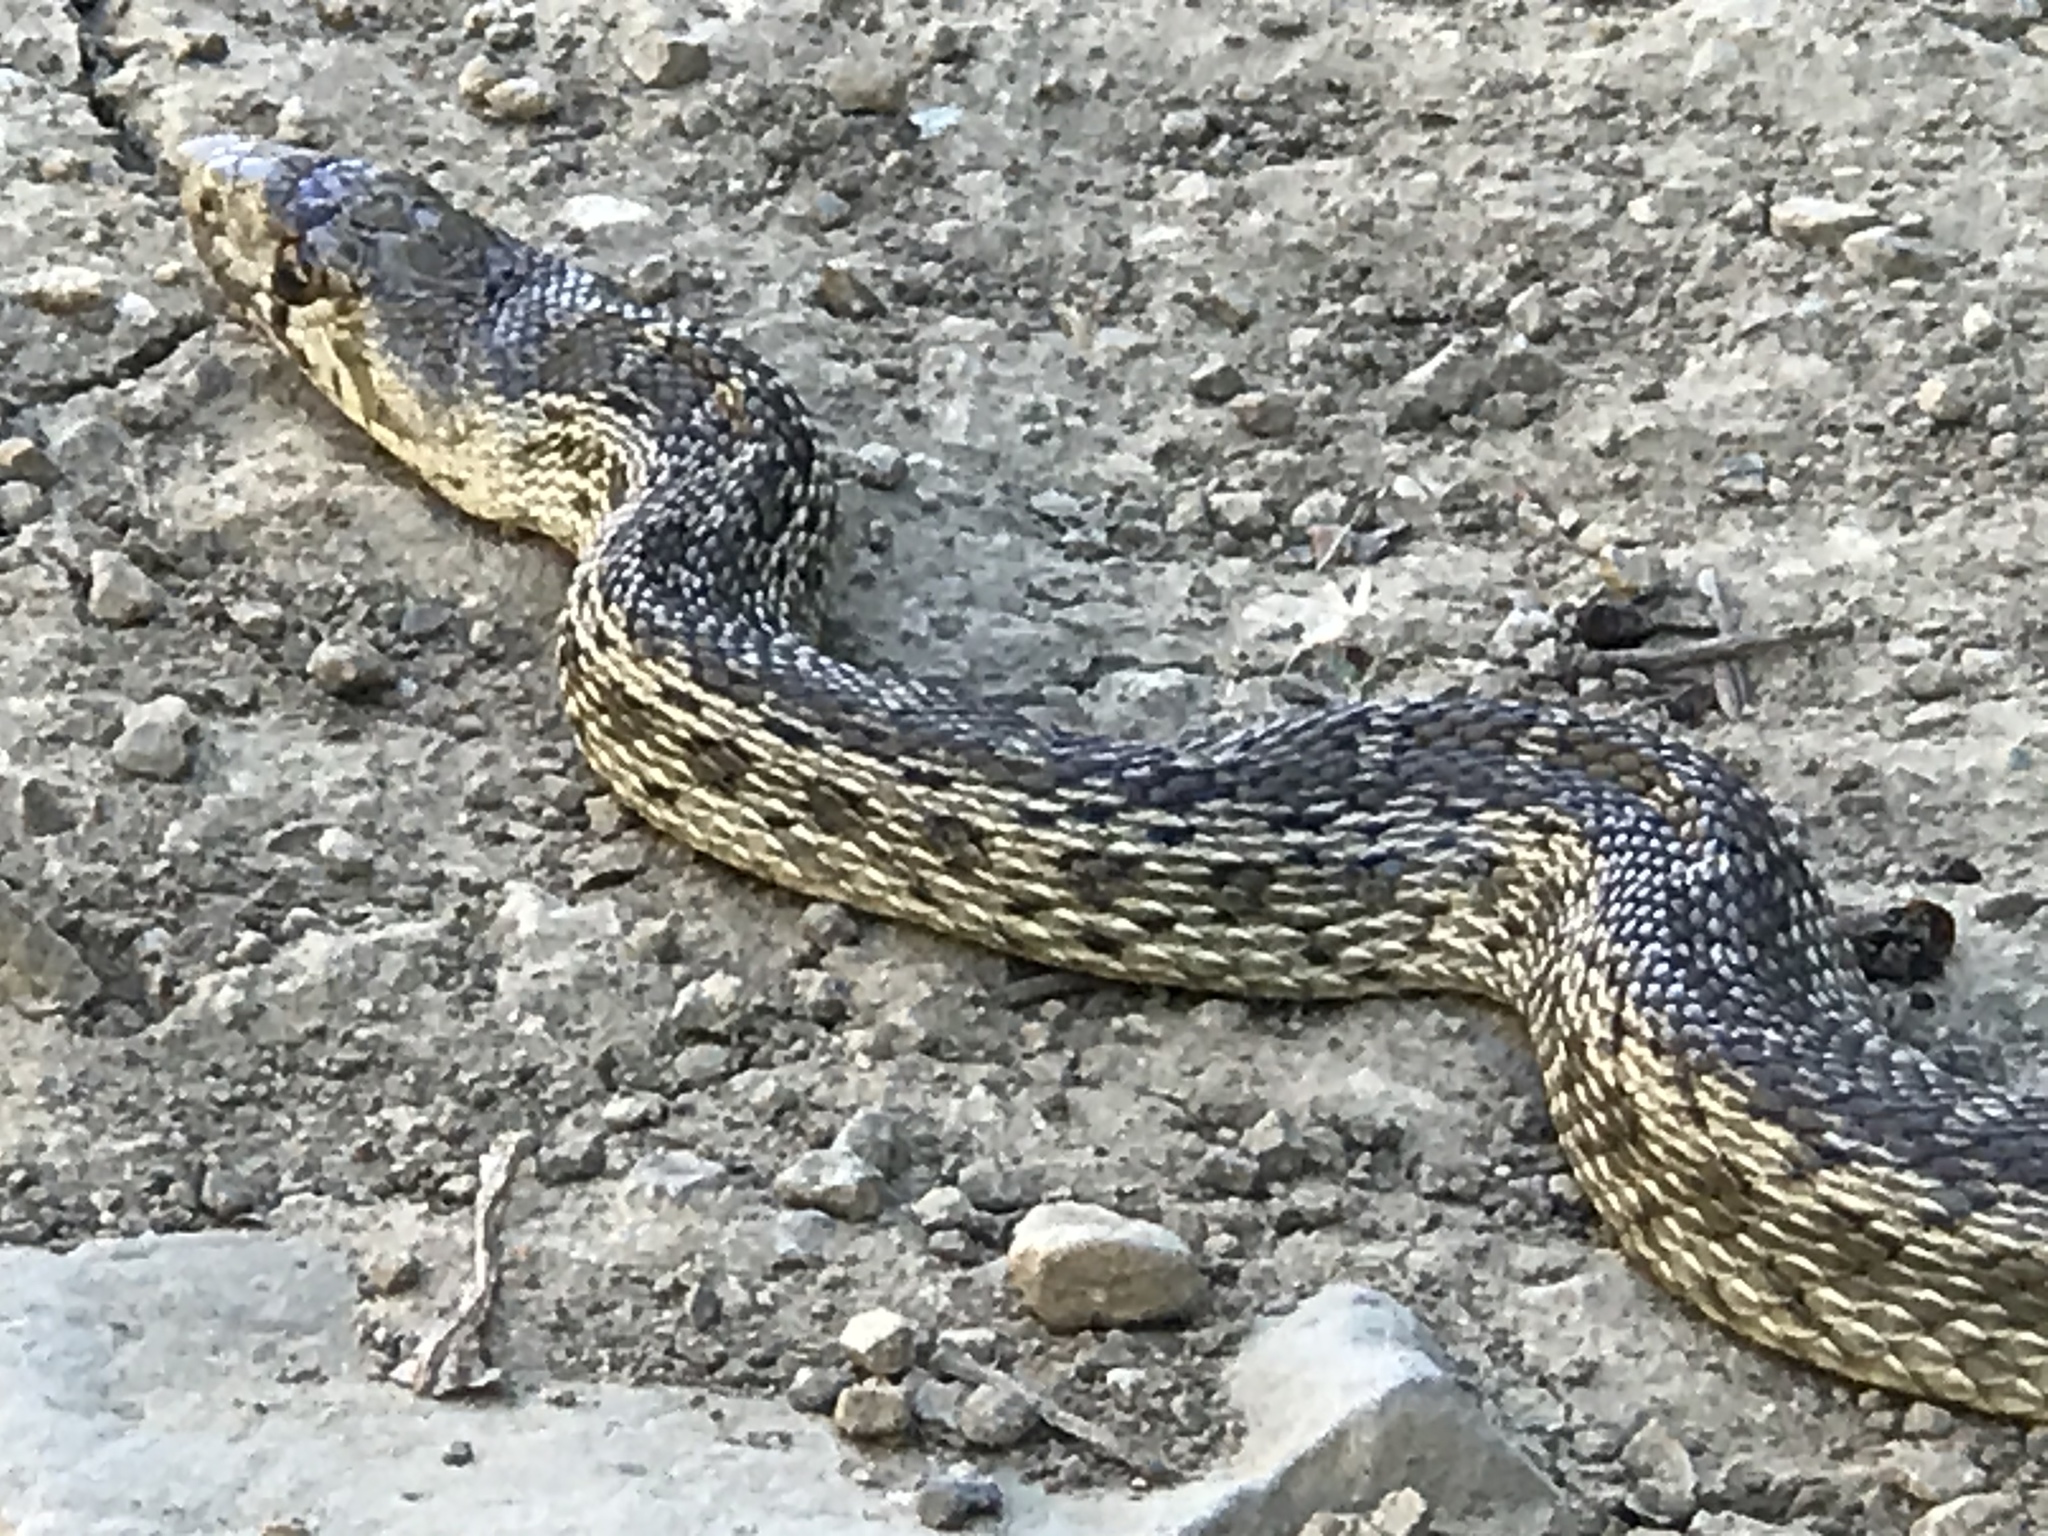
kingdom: Animalia
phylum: Chordata
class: Squamata
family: Colubridae
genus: Pituophis
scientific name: Pituophis catenifer
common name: Gopher snake
